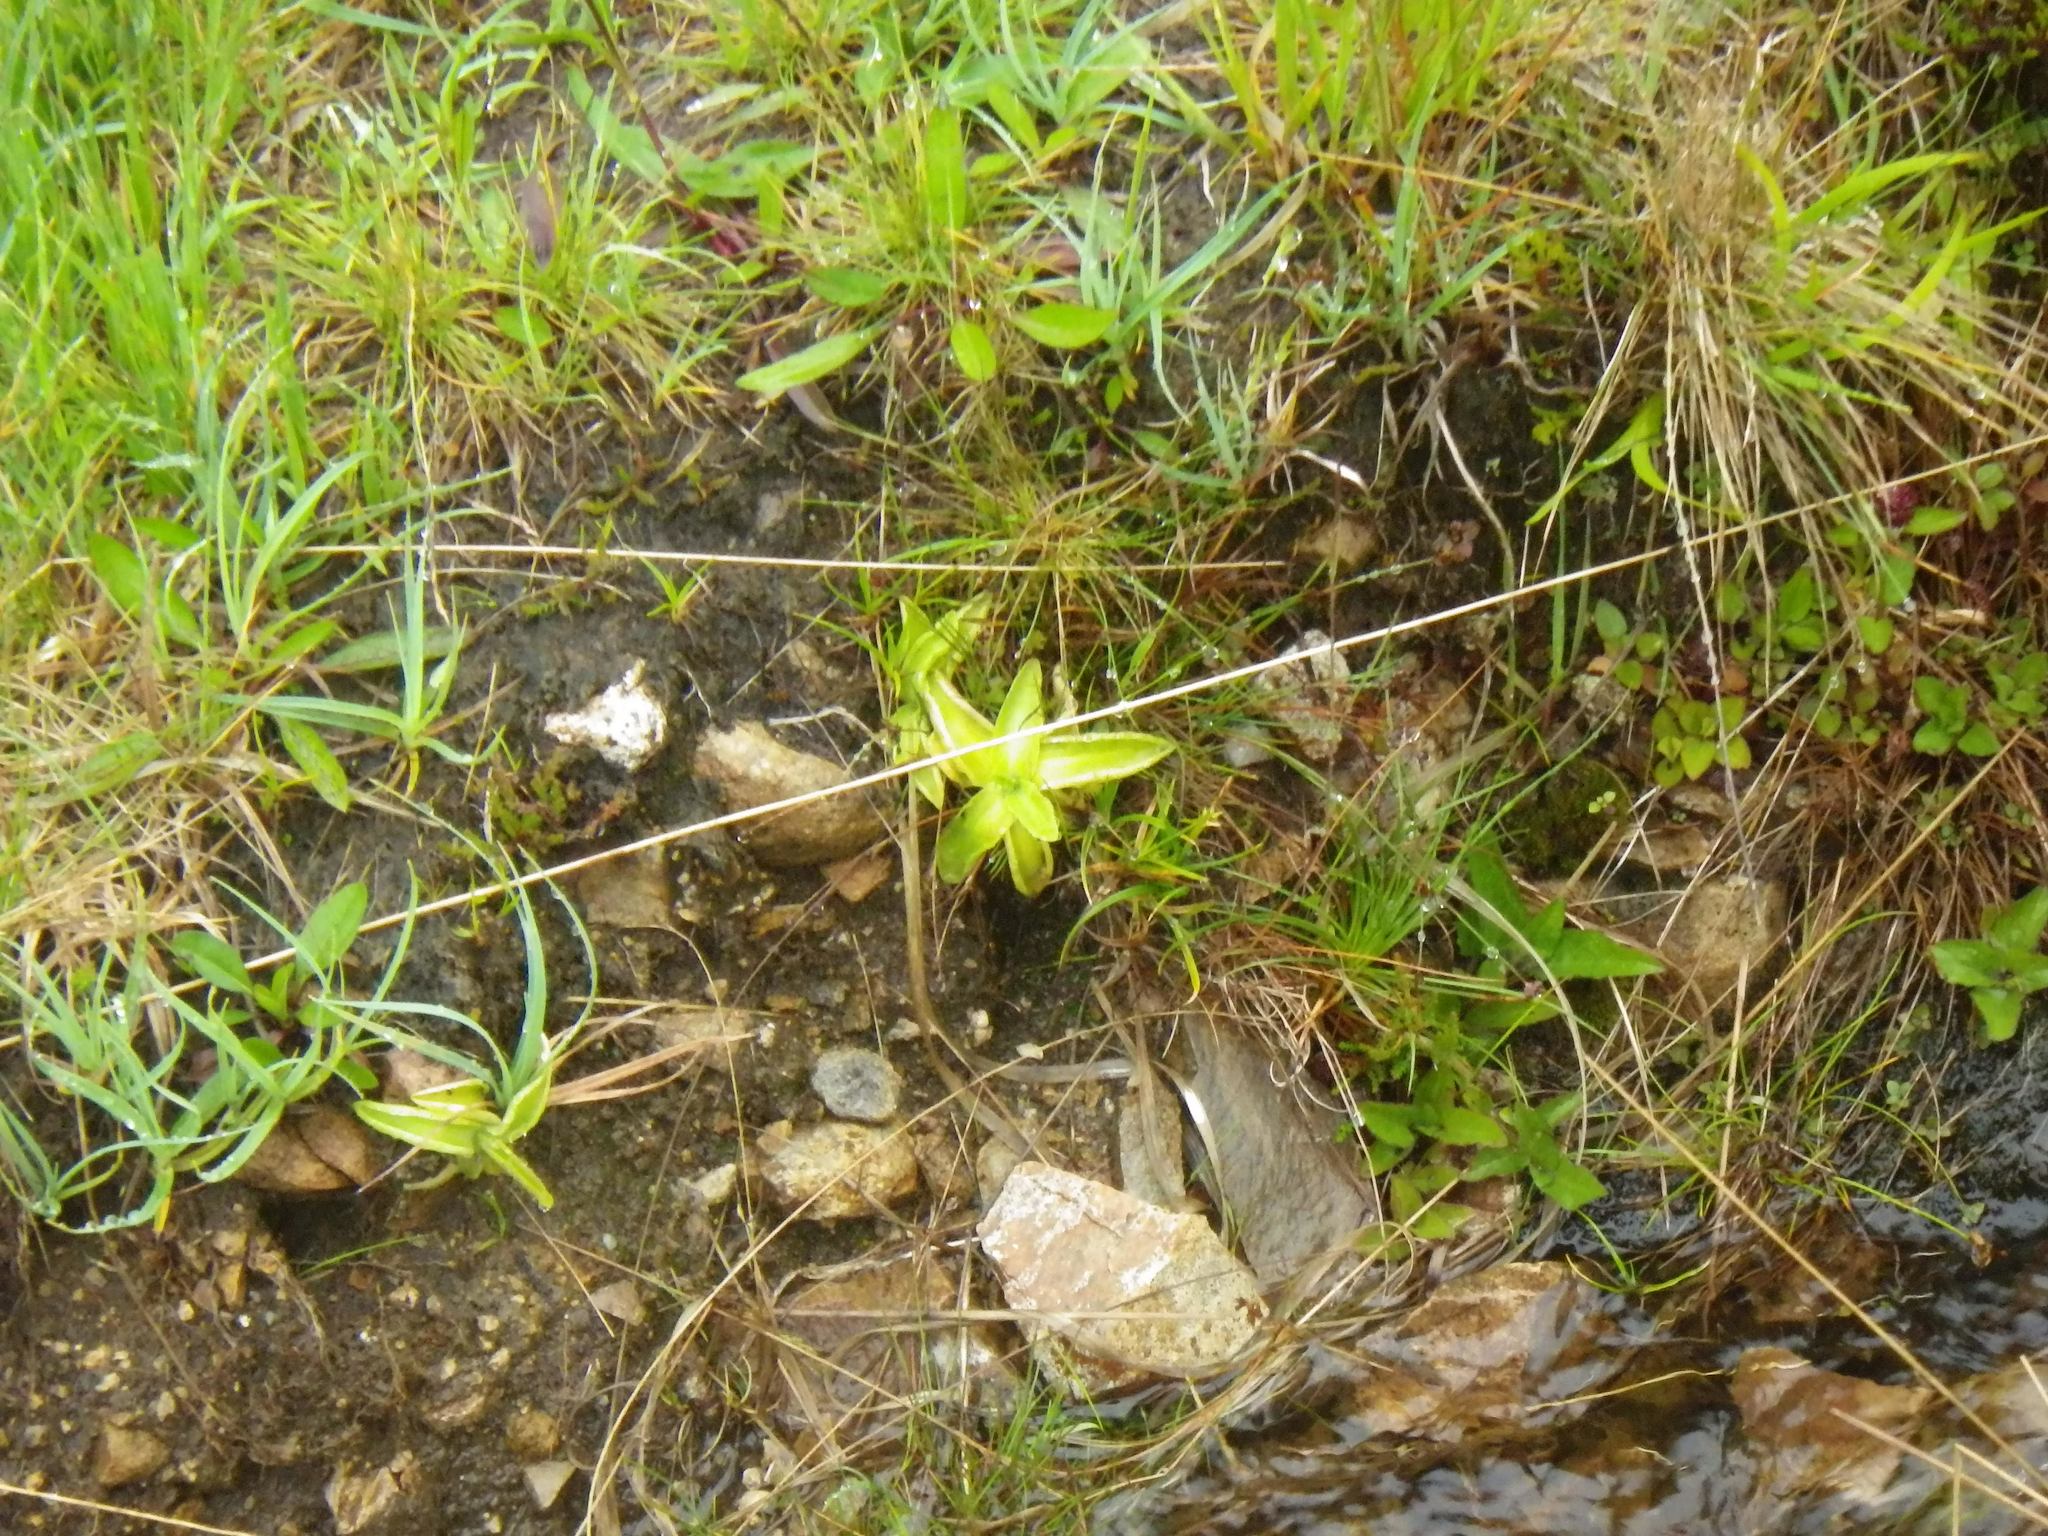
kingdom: Plantae
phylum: Tracheophyta
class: Magnoliopsida
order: Lamiales
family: Lentibulariaceae
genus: Pinguicula
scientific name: Pinguicula vulgaris
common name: Common butterwort
